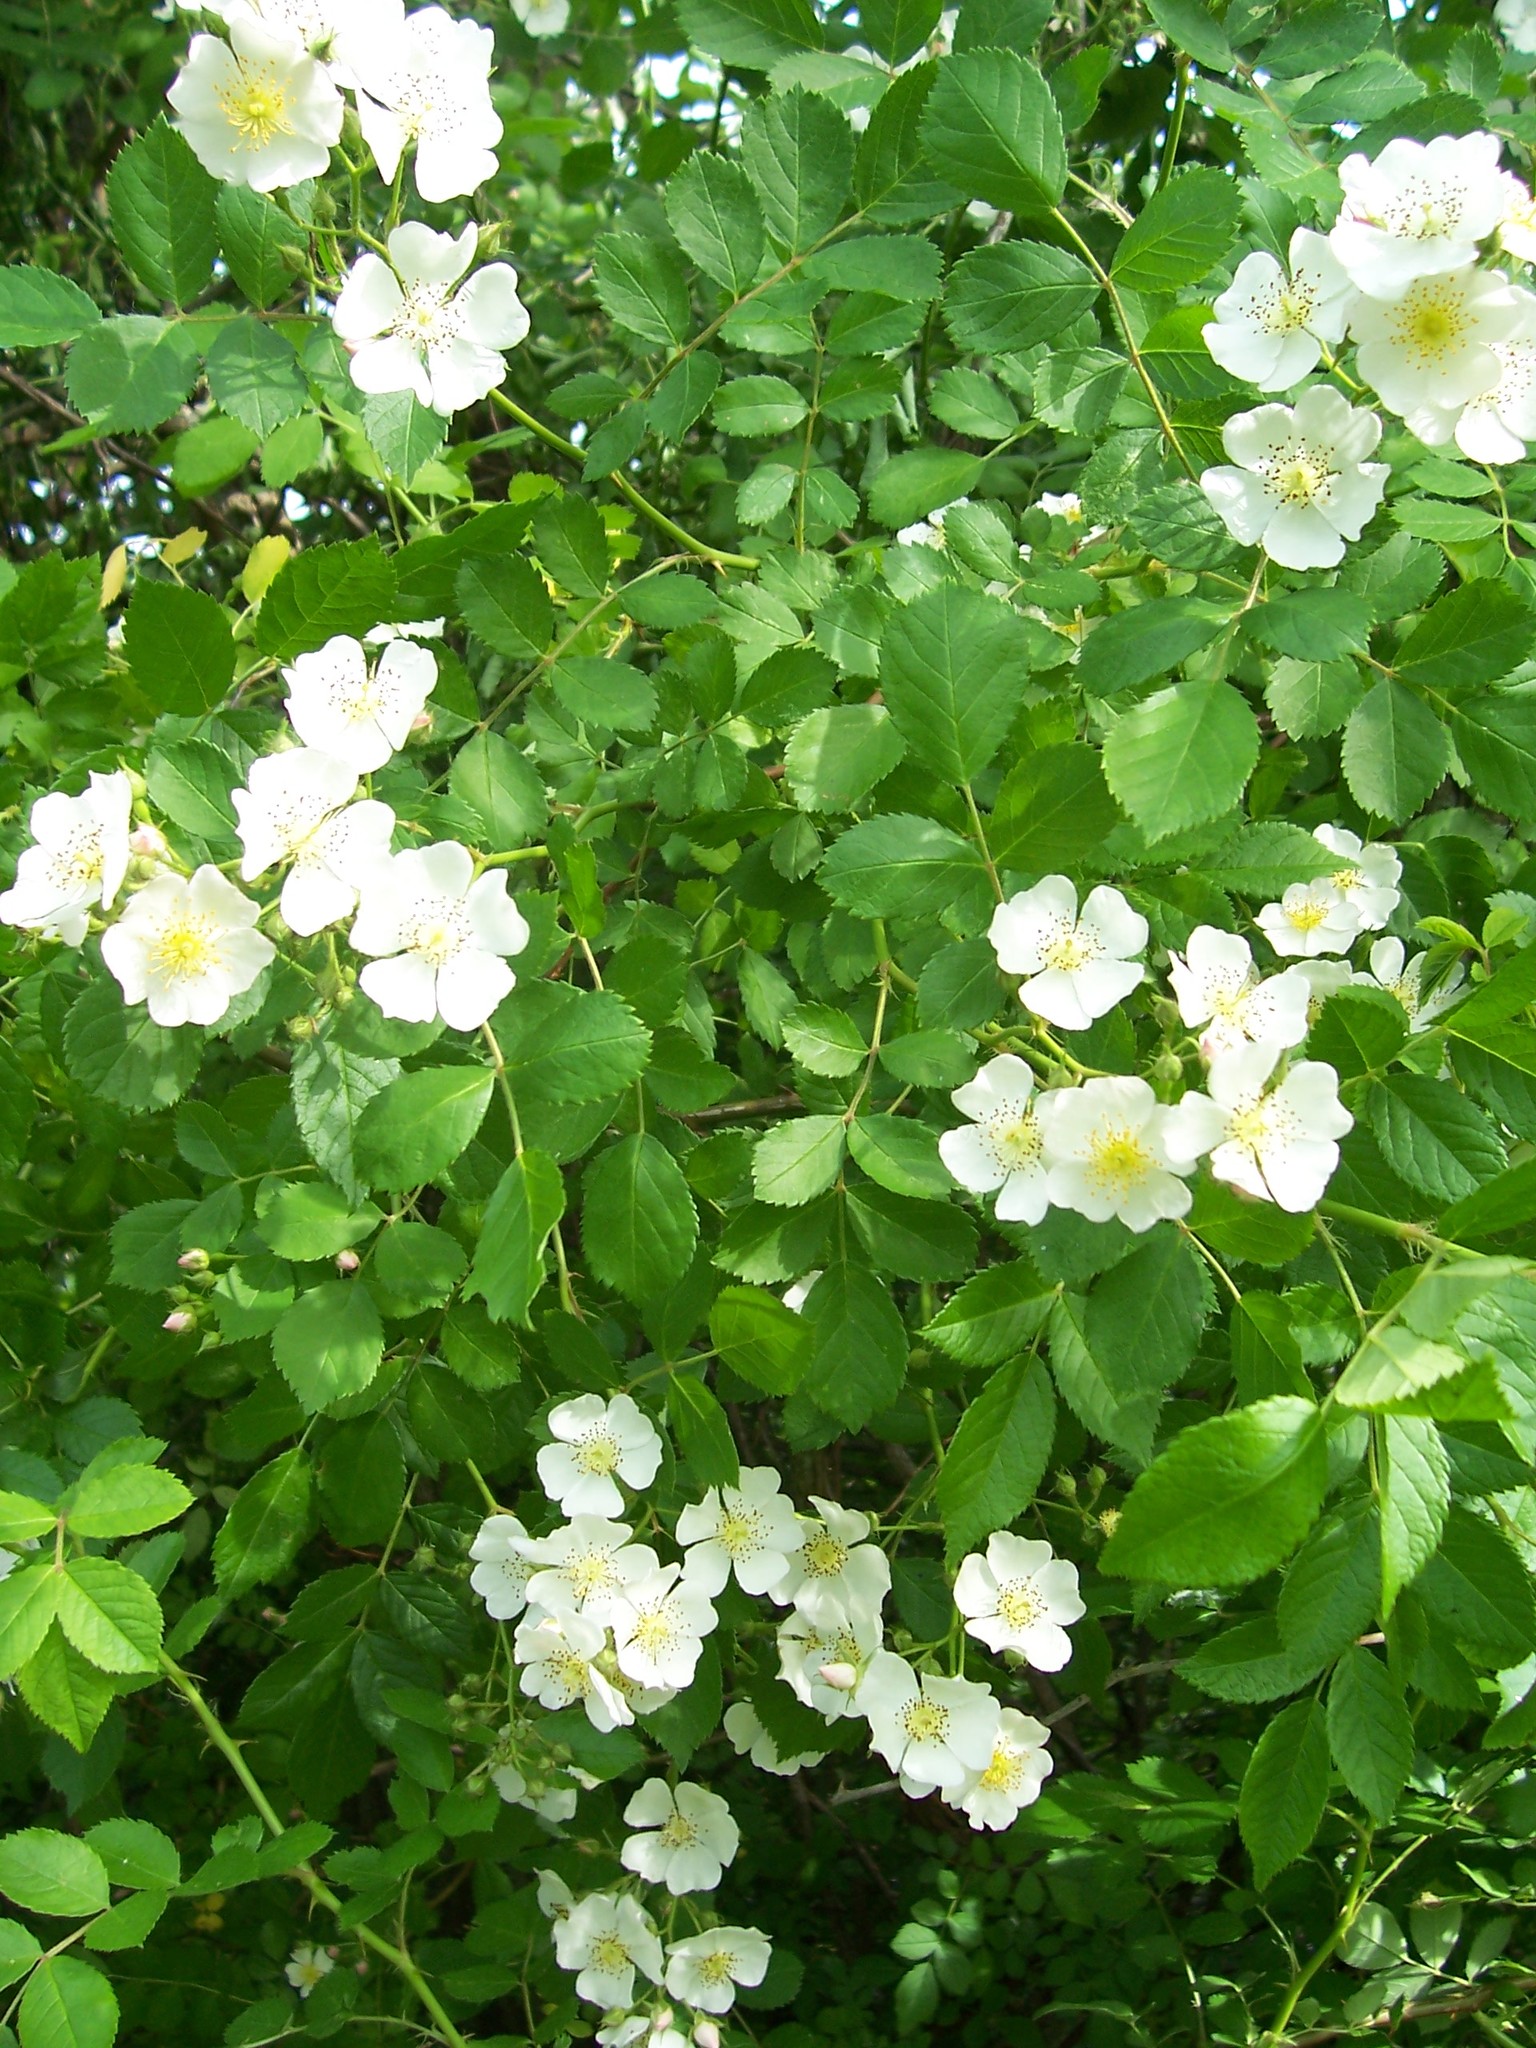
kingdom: Plantae
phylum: Tracheophyta
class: Magnoliopsida
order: Rosales
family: Rosaceae
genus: Rosa
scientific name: Rosa multiflora
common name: Multiflora rose
